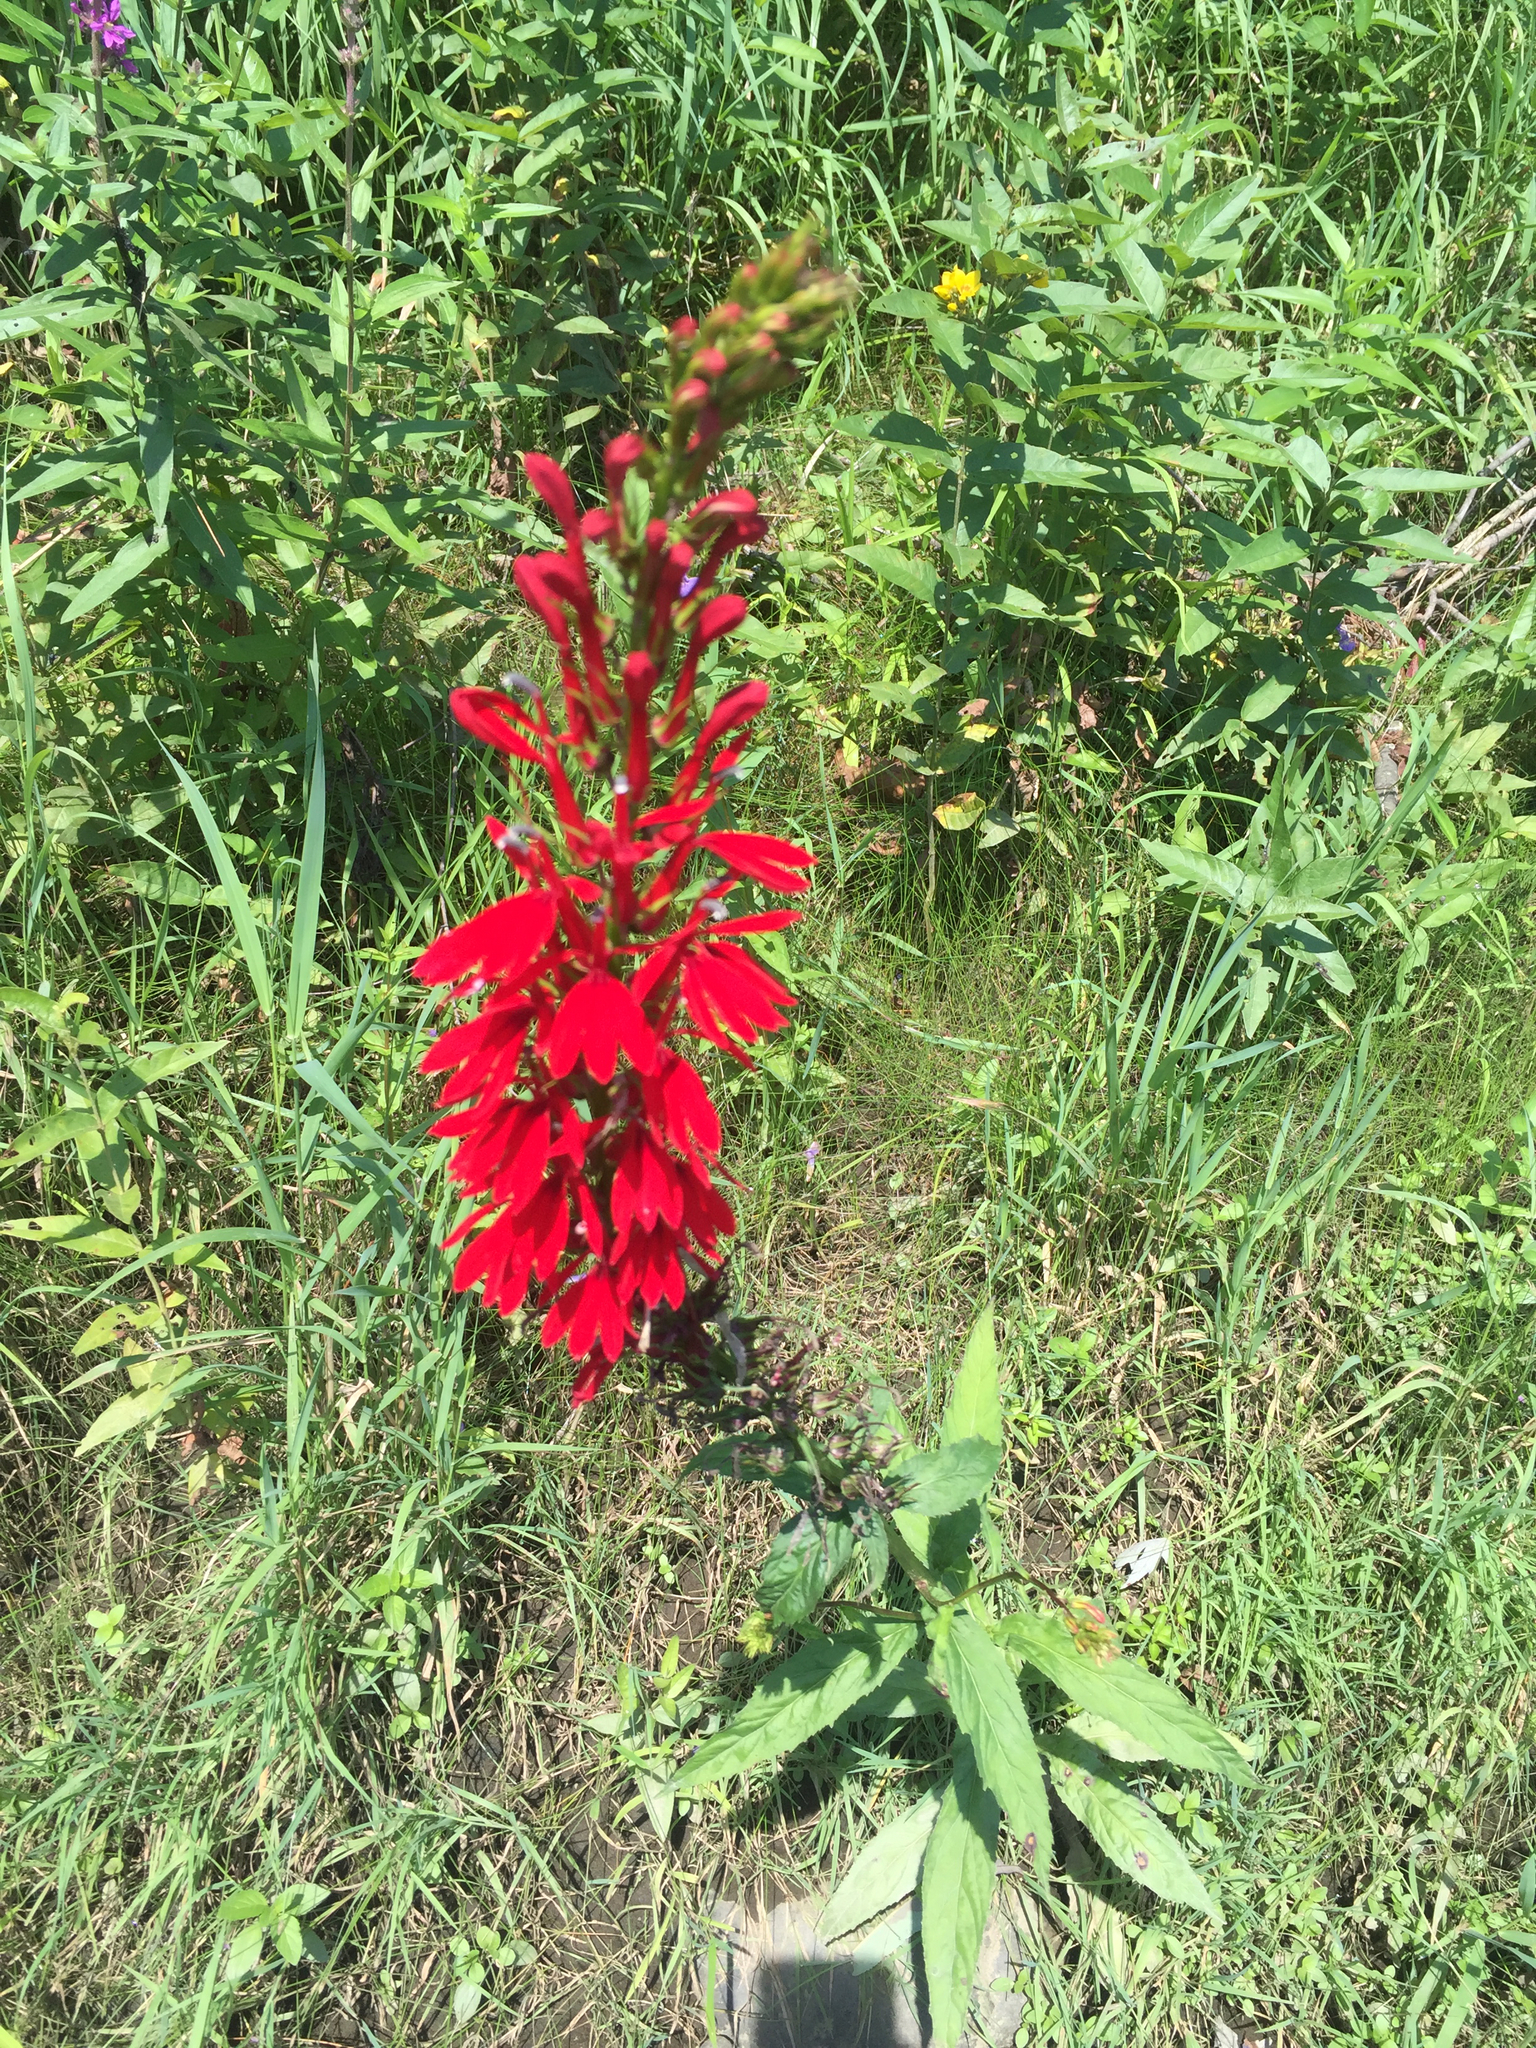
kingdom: Plantae
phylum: Tracheophyta
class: Magnoliopsida
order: Asterales
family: Campanulaceae
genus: Lobelia
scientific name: Lobelia cardinalis
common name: Cardinal flower
